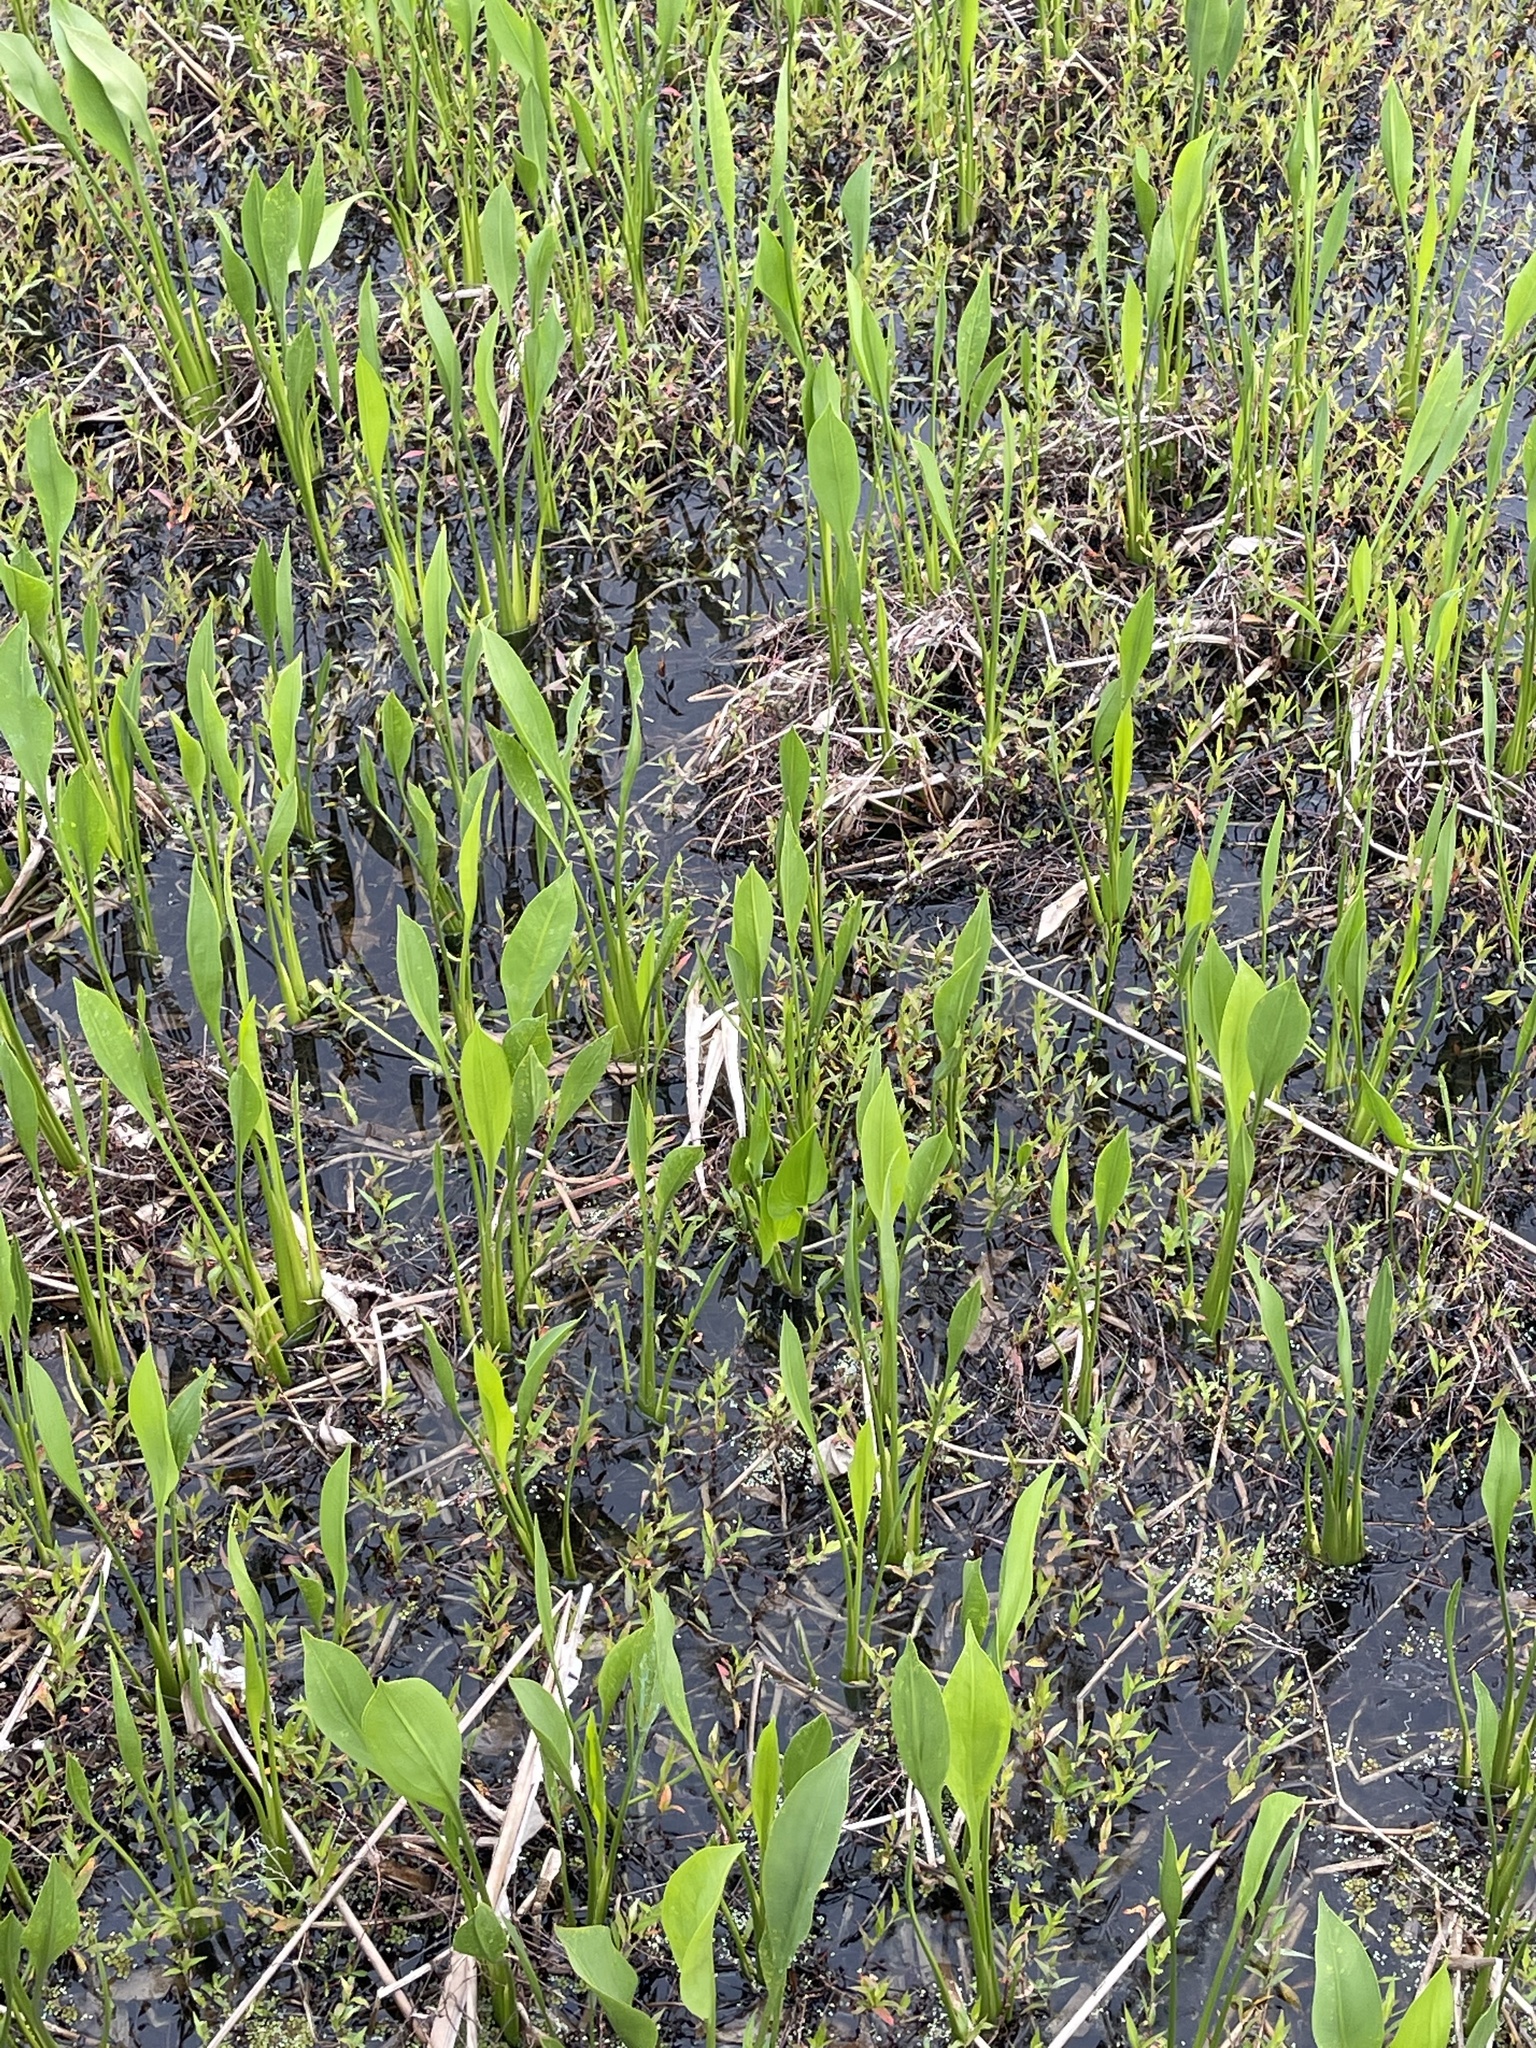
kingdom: Plantae
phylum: Tracheophyta
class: Liliopsida
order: Alismatales
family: Alismataceae
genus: Sagittaria
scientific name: Sagittaria lancifolia
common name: Lance-leaf arrowhead
